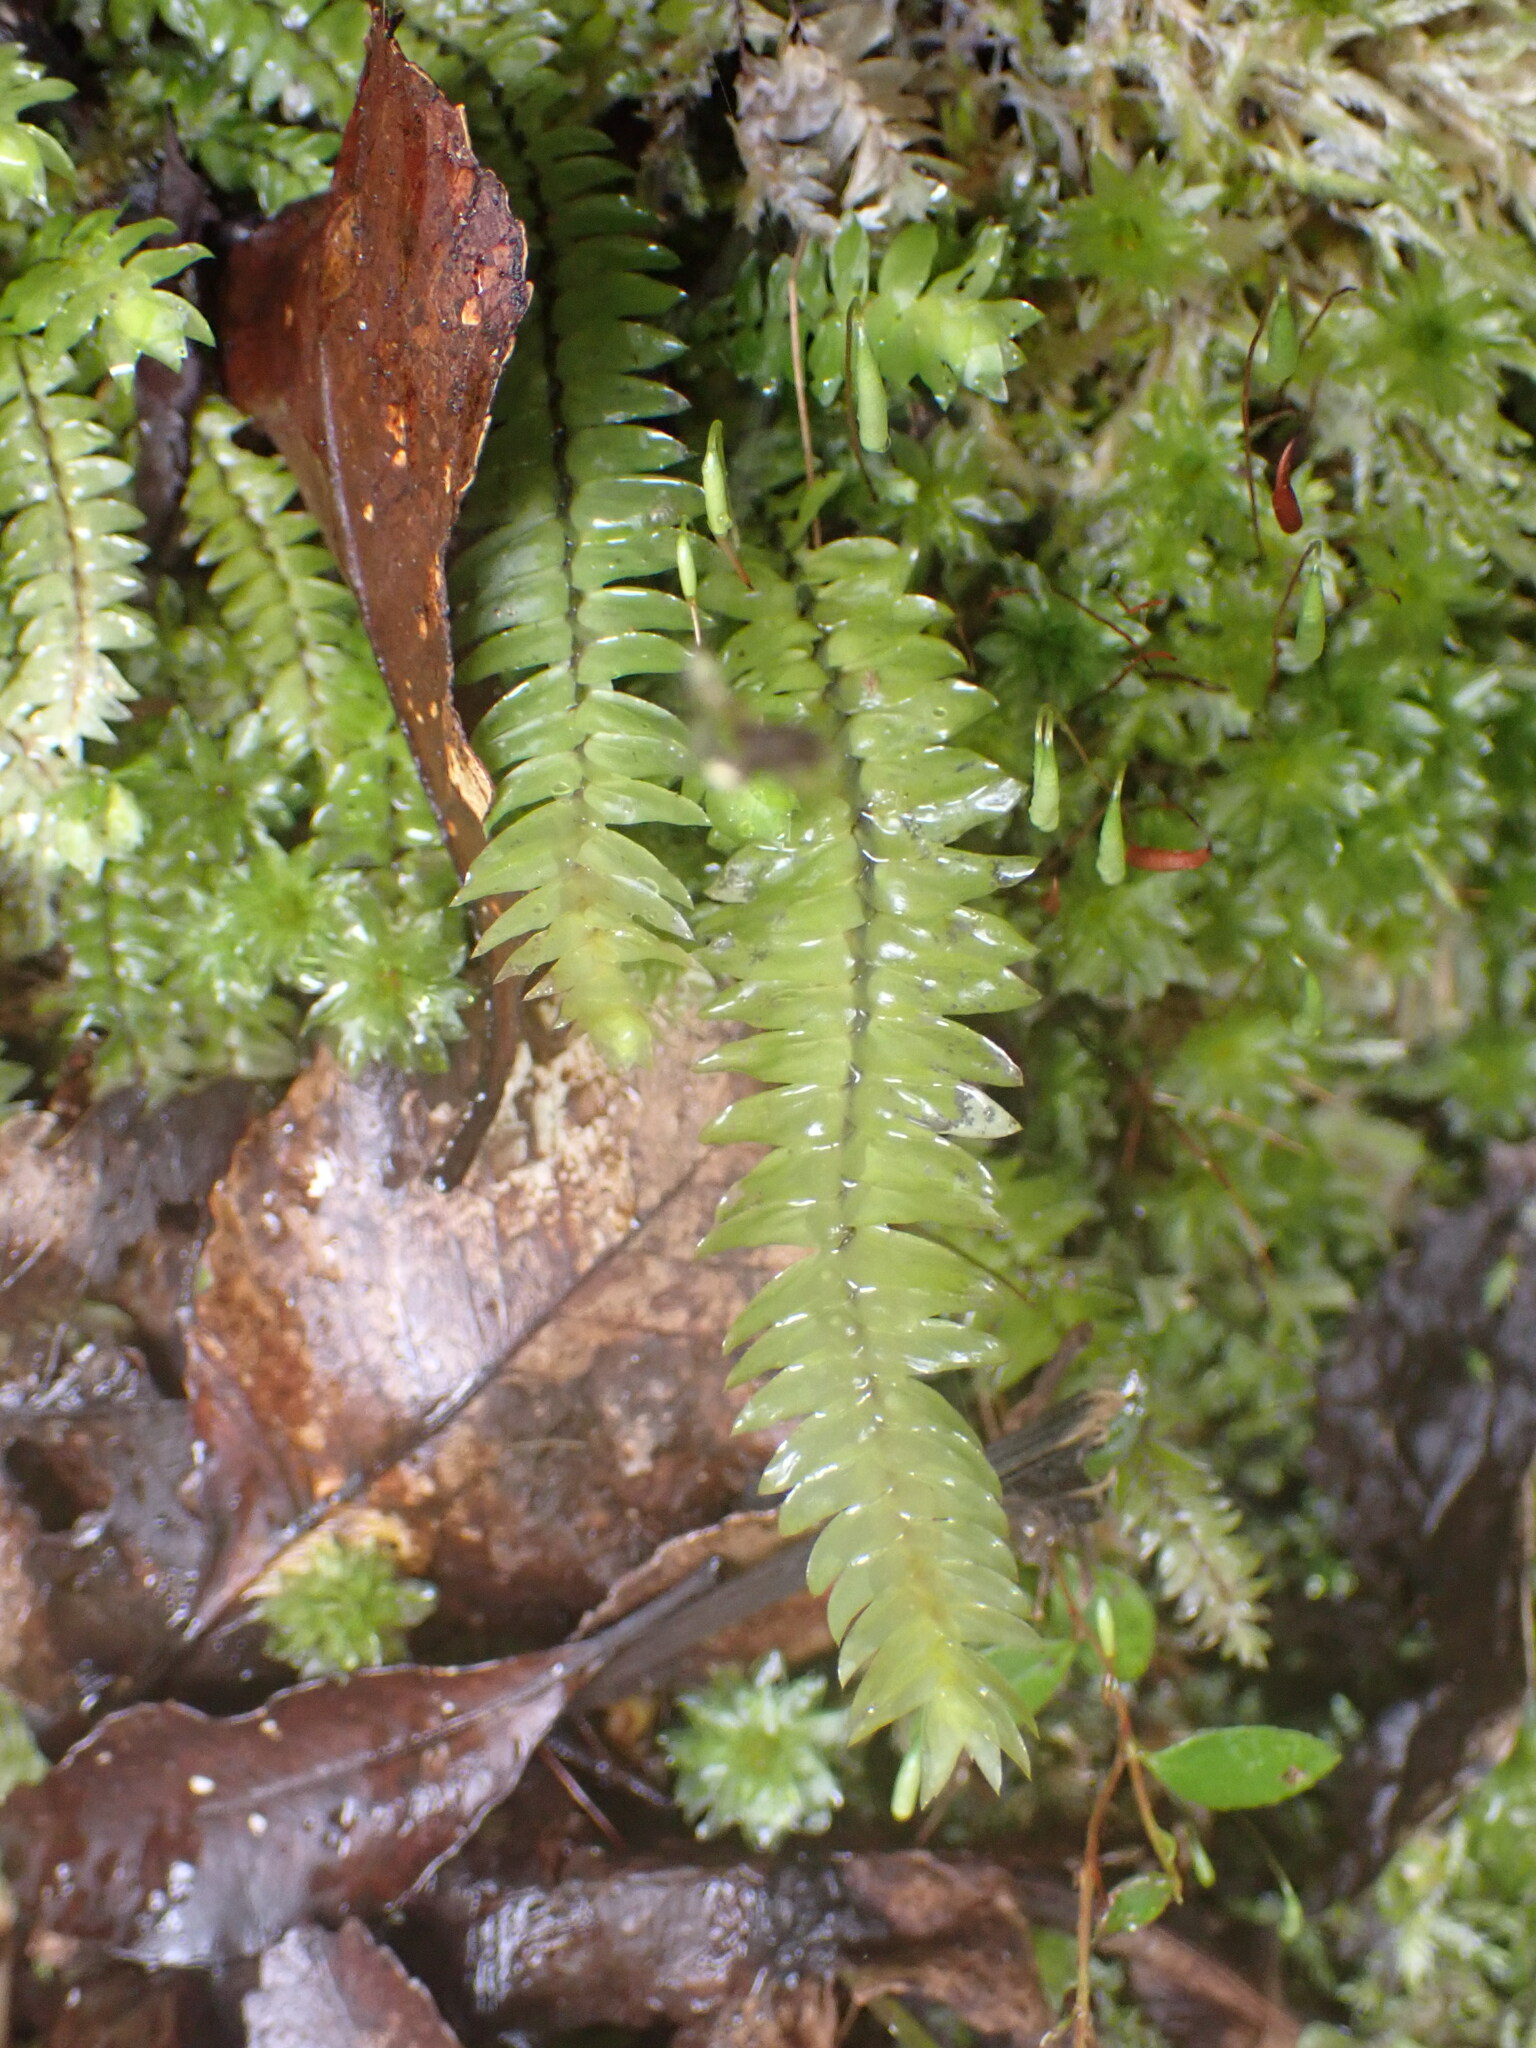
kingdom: Plantae
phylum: Bryophyta
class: Bryopsida
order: Hypopterygiales
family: Hypopterygiaceae
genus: Cyathophorum
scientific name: Cyathophorum bulbosum
